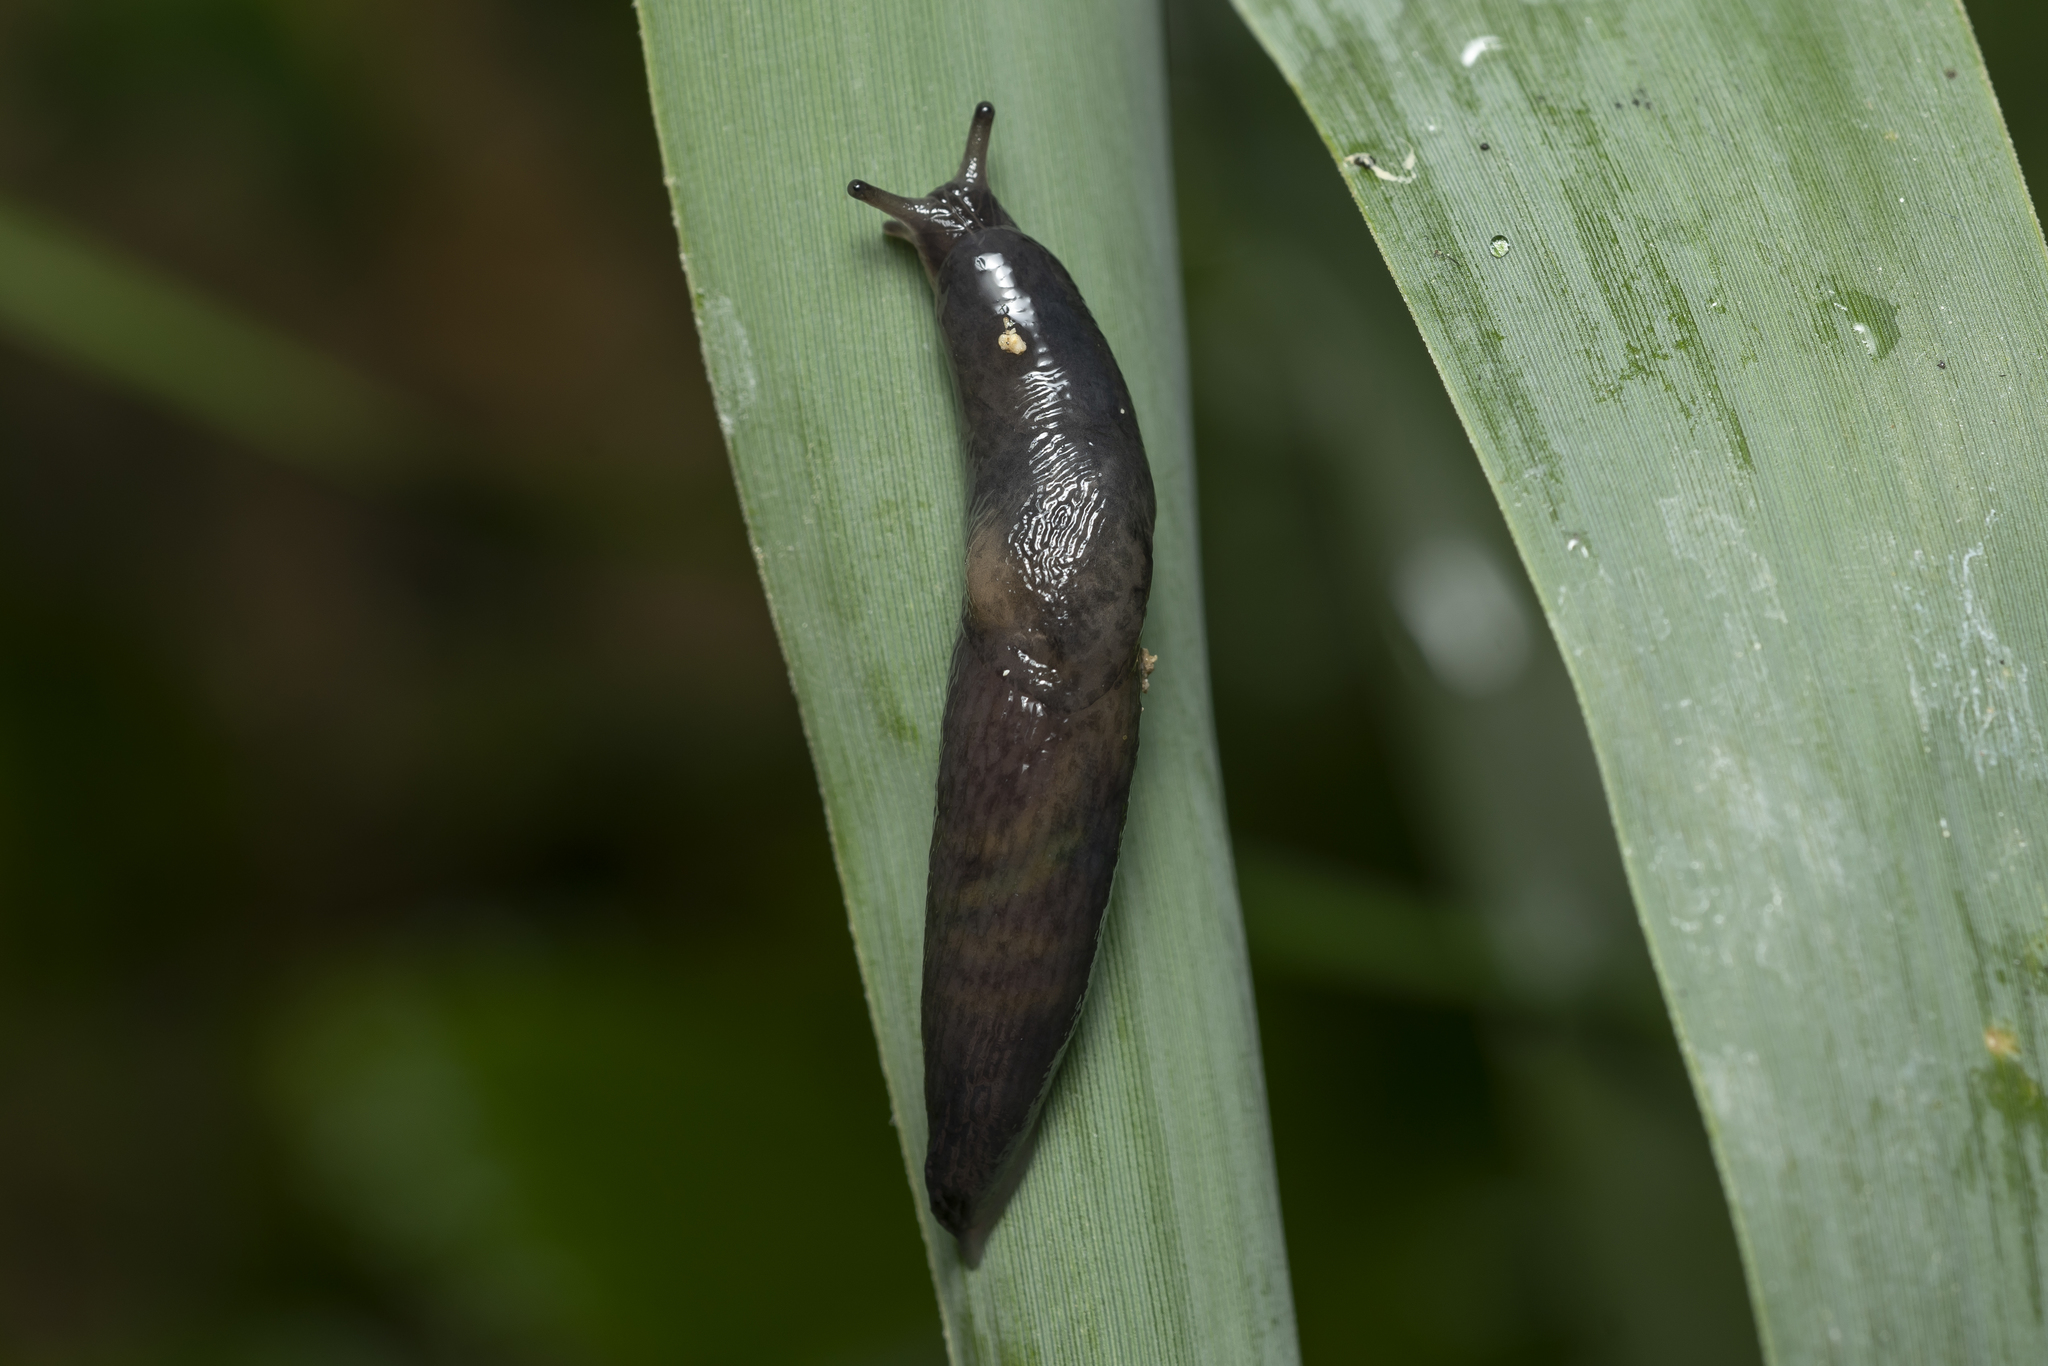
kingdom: Animalia
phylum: Mollusca
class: Gastropoda
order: Stylommatophora
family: Agriolimacidae
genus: Deroceras
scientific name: Deroceras neuteboomi
